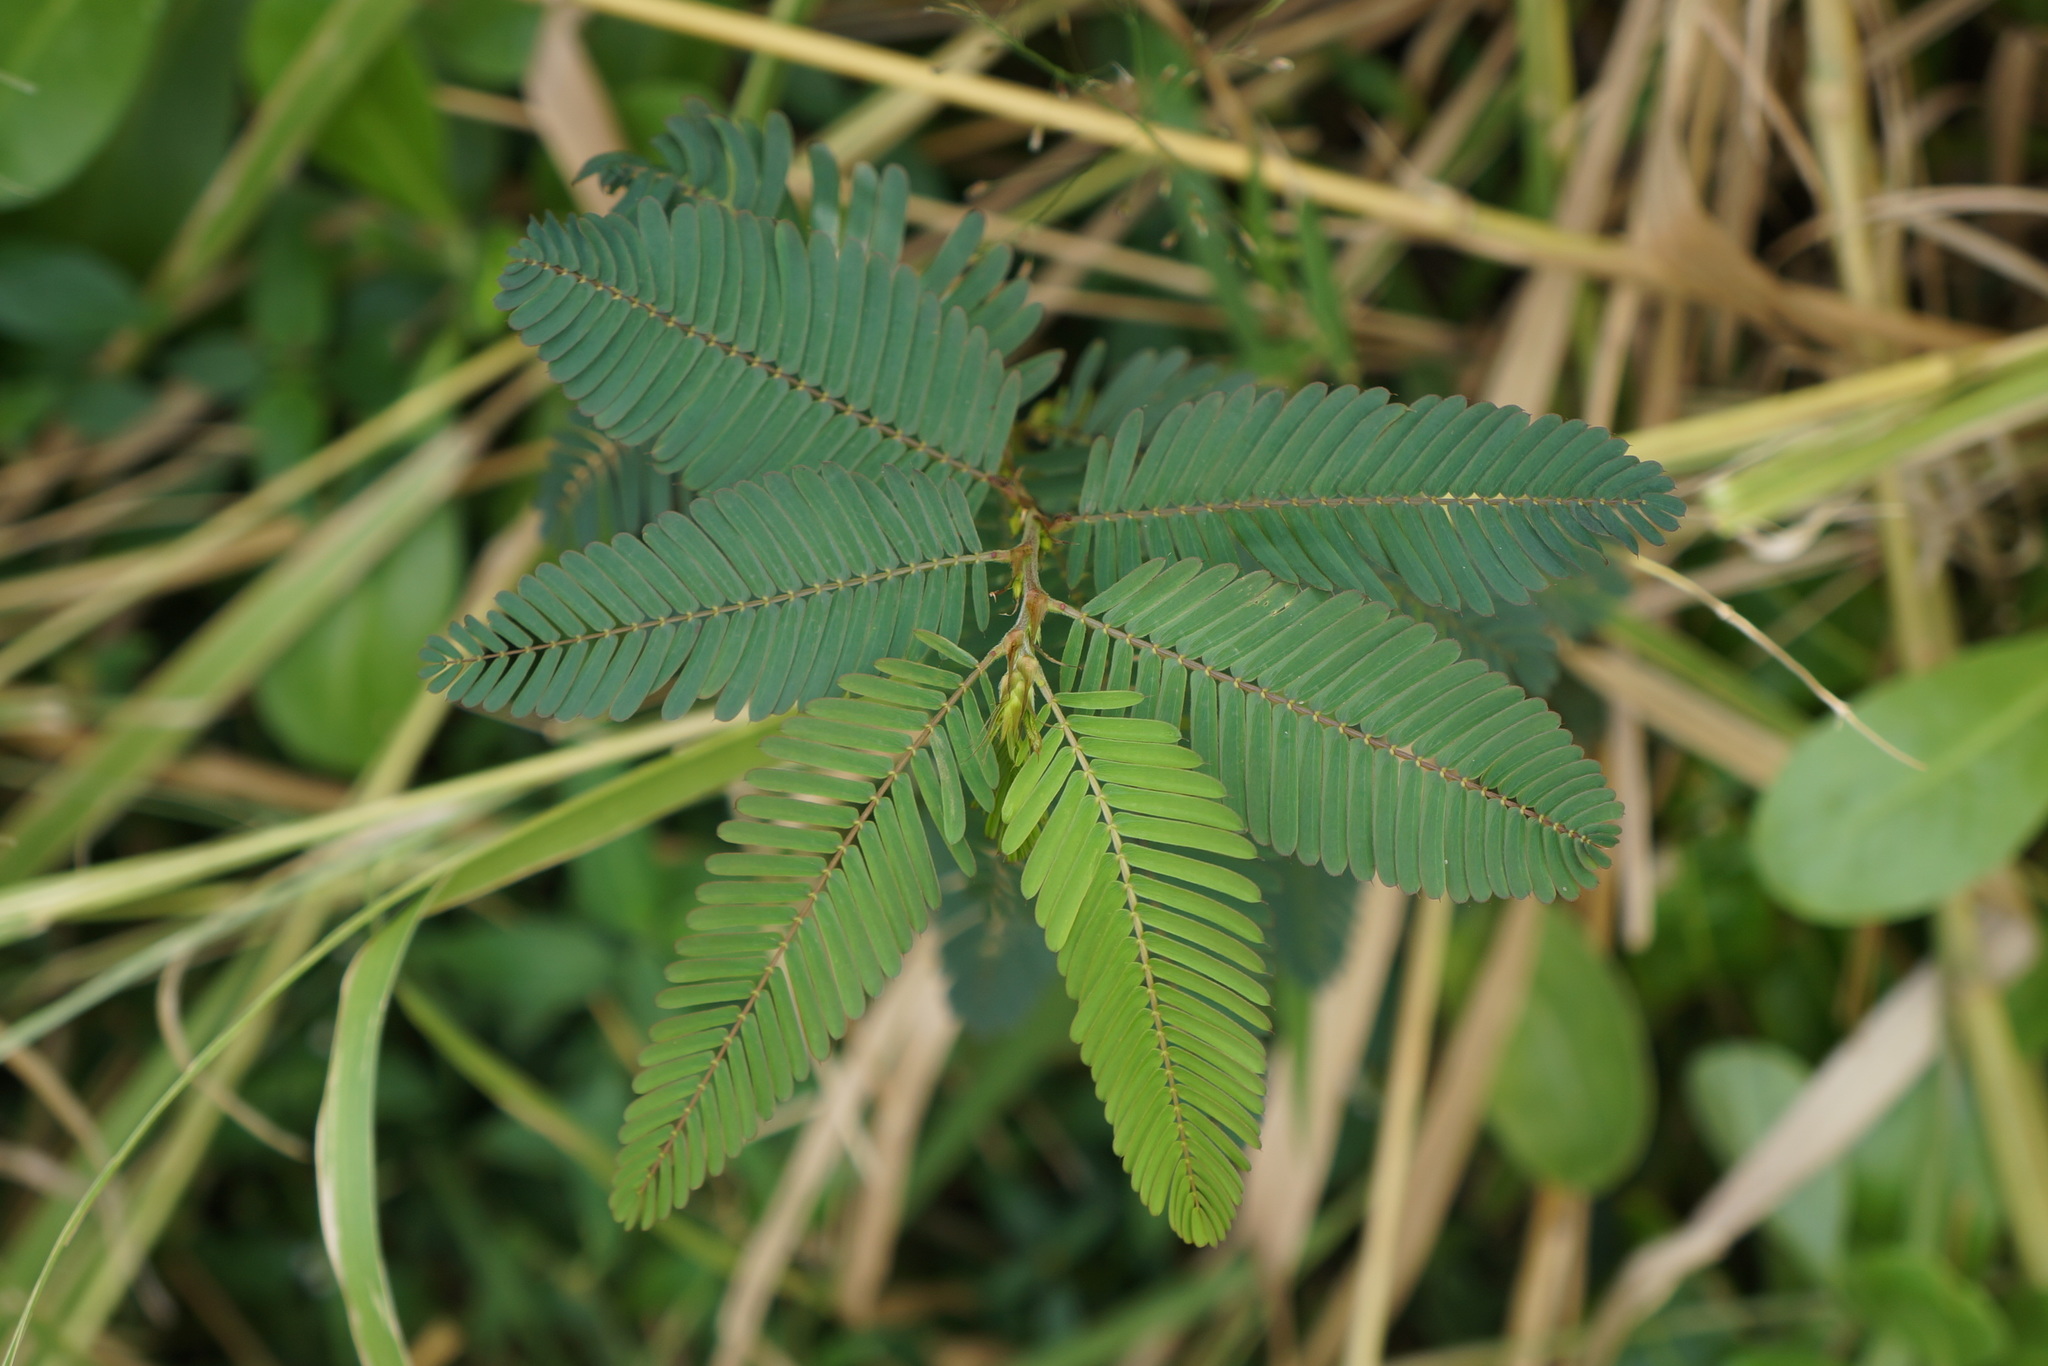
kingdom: Plantae
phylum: Tracheophyta
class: Magnoliopsida
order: Fabales
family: Fabaceae
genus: Chamaecrista
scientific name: Chamaecrista nictitans
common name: Sensitive cassia
